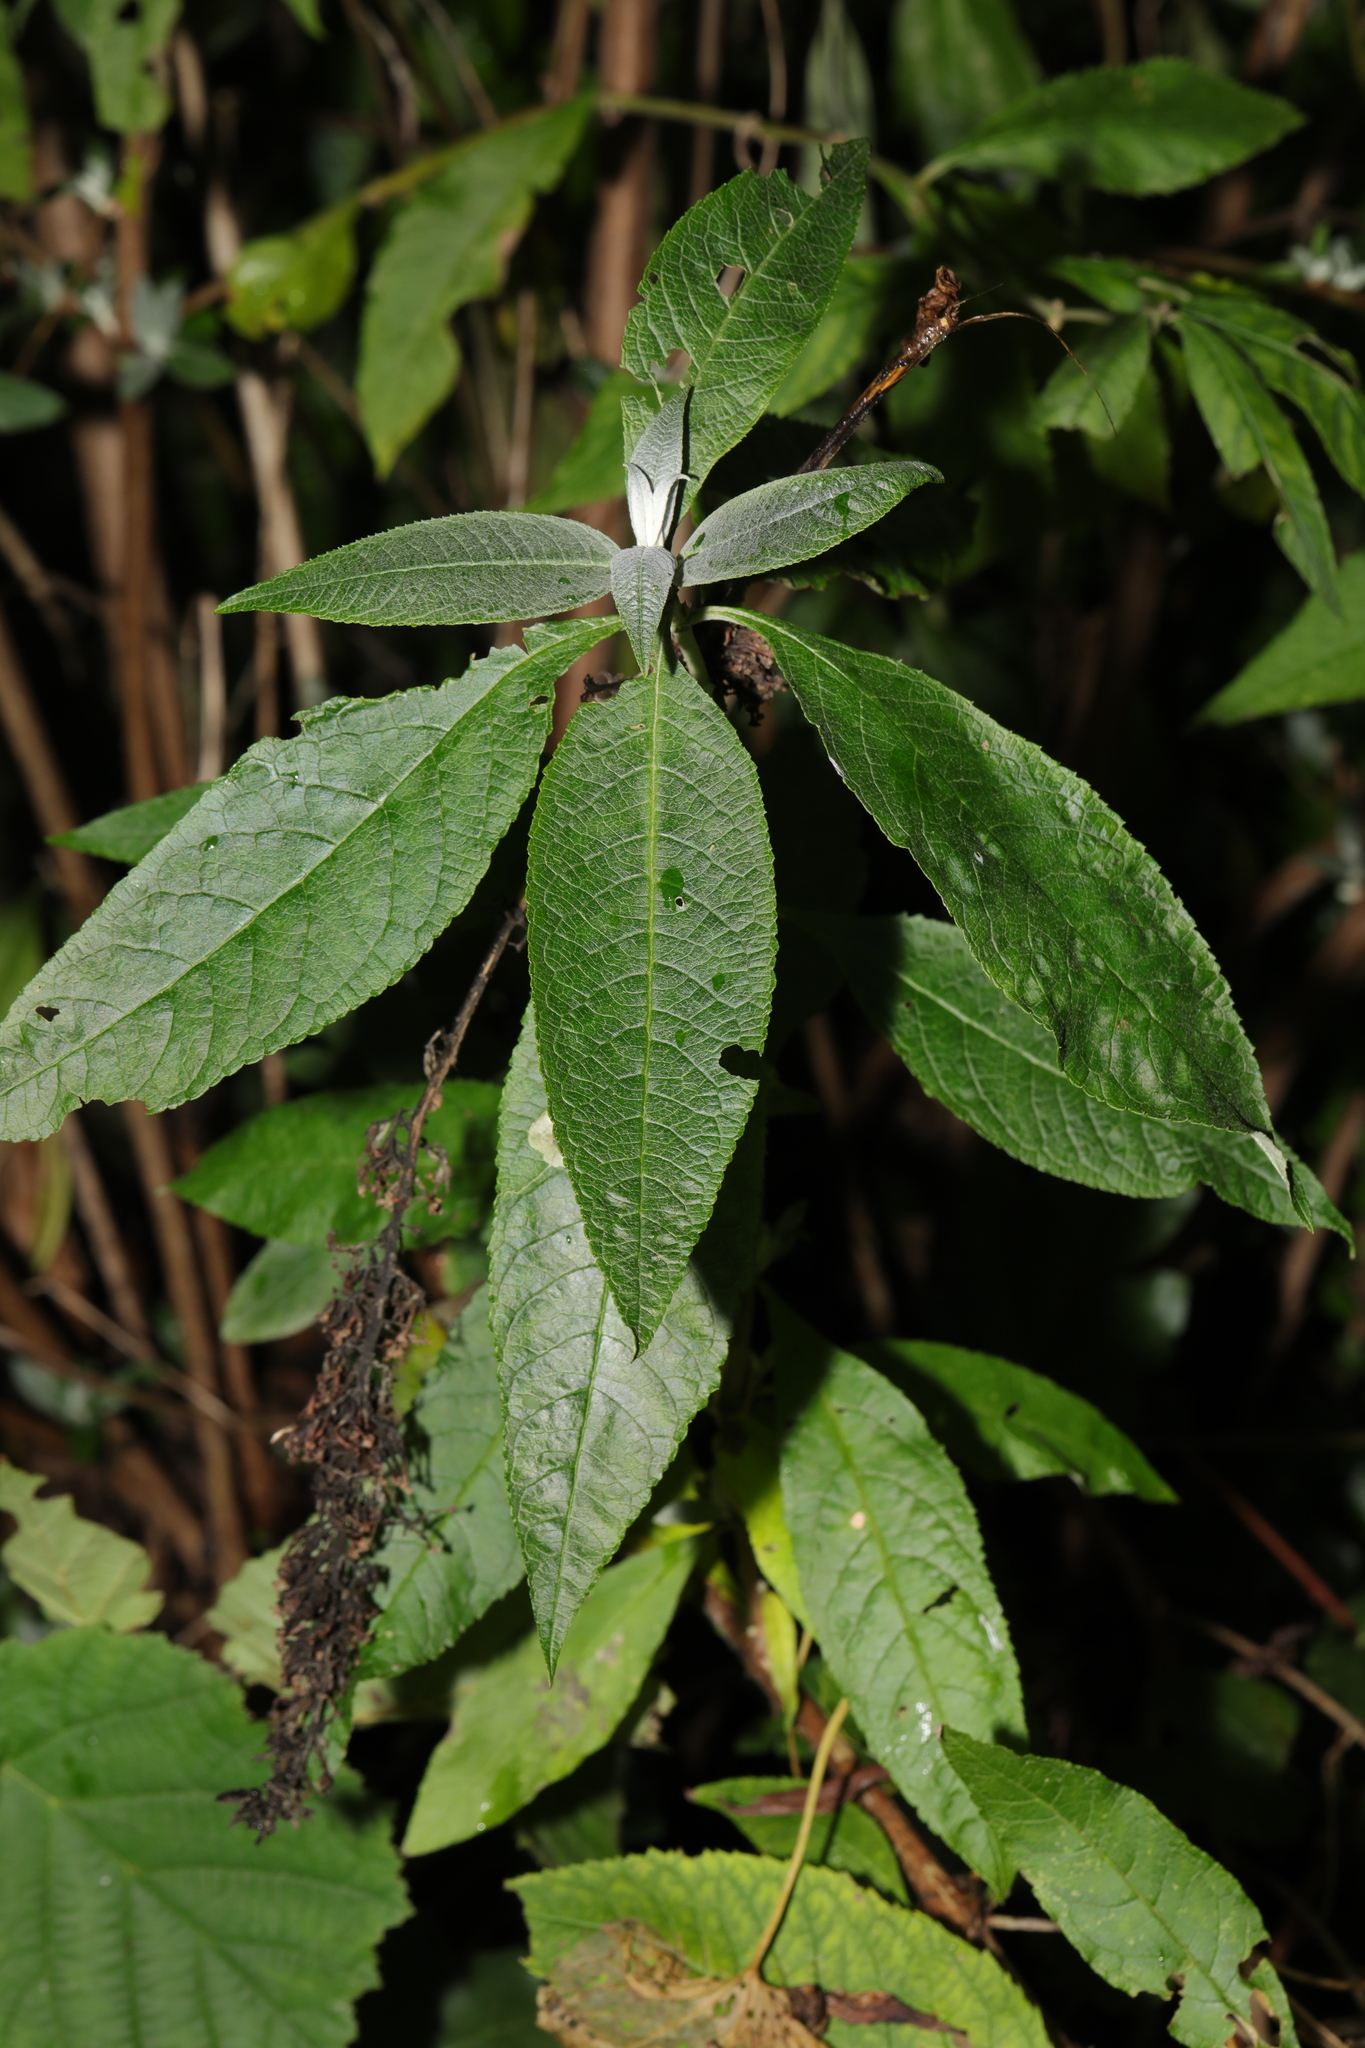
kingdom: Plantae
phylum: Tracheophyta
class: Magnoliopsida
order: Lamiales
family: Scrophulariaceae
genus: Buddleja
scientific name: Buddleja davidii
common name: Butterfly-bush
